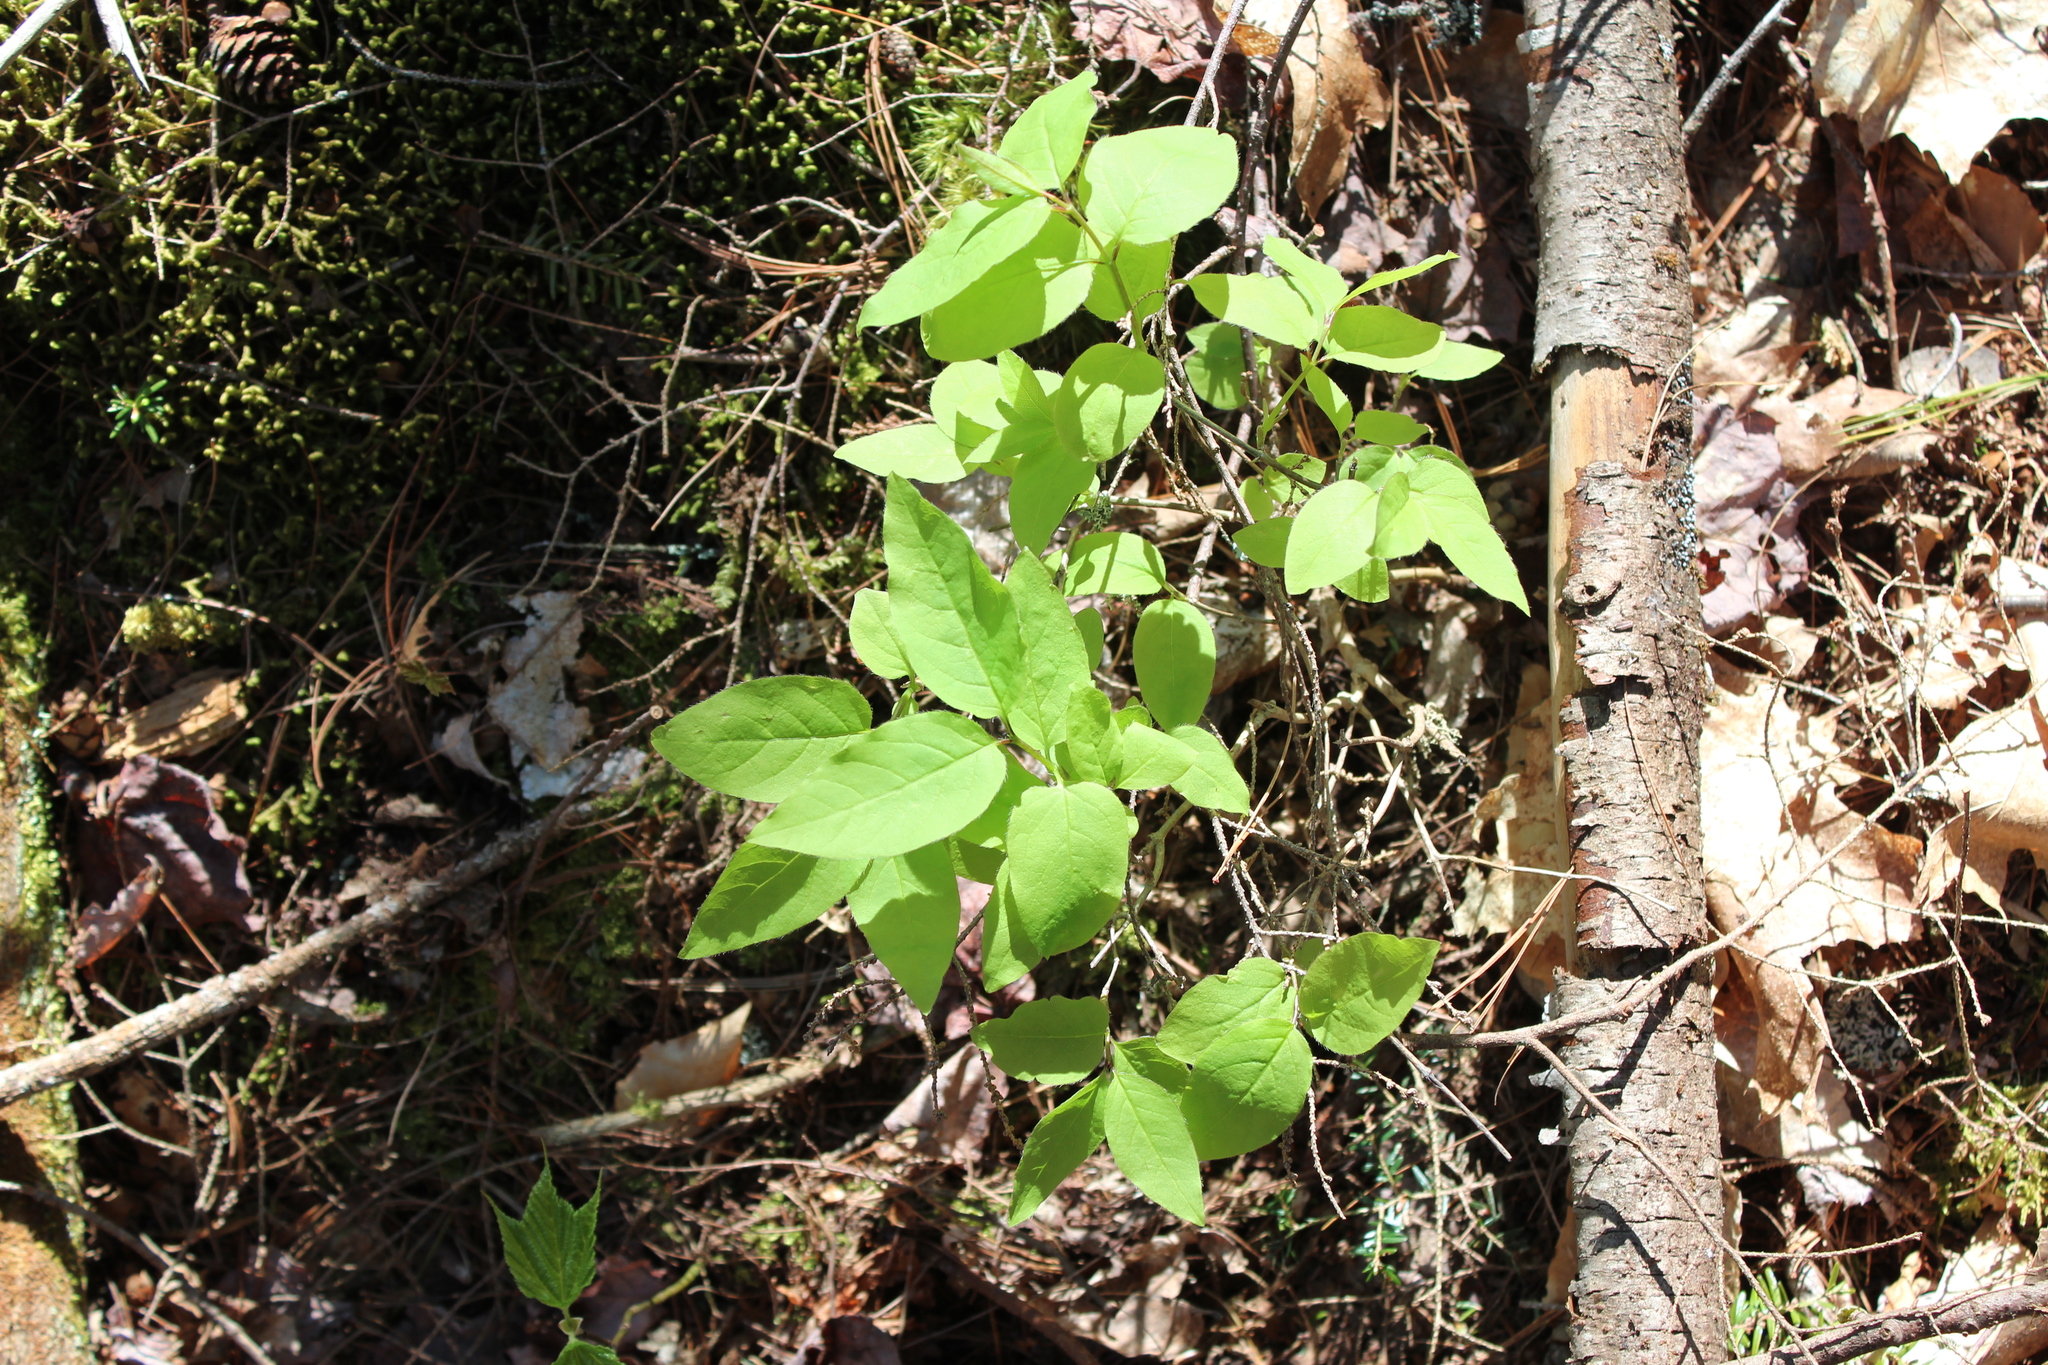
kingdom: Plantae
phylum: Tracheophyta
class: Magnoliopsida
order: Dipsacales
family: Caprifoliaceae
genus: Lonicera
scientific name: Lonicera canadensis
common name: American fly-honeysuckle
